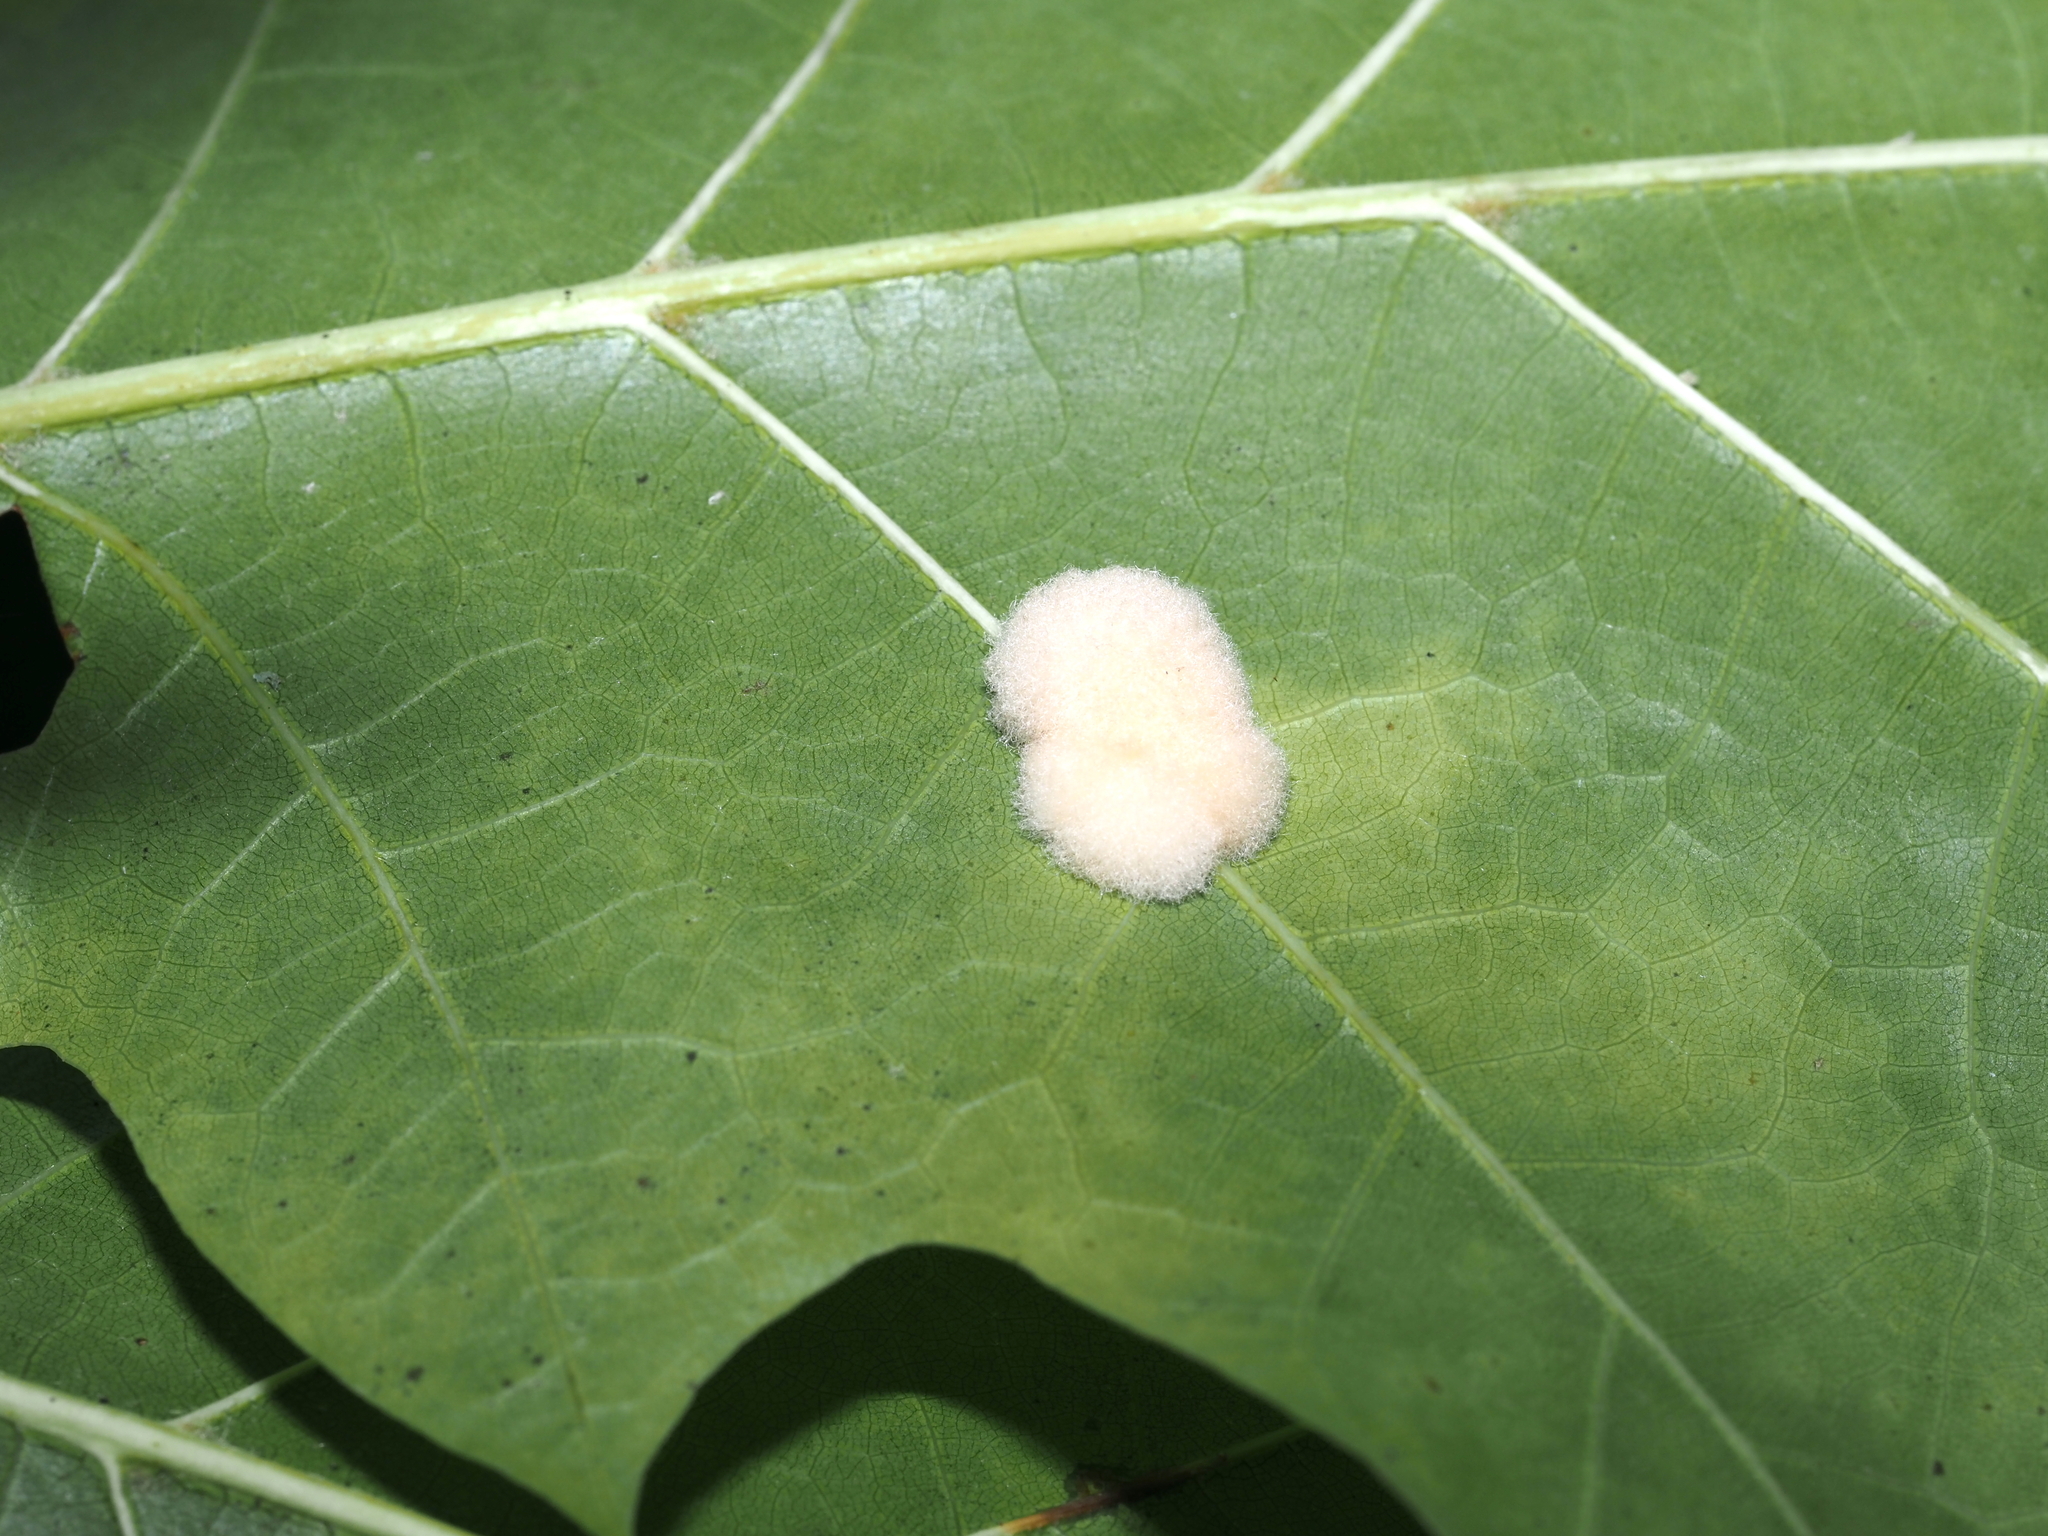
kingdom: Animalia
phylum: Arthropoda
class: Insecta
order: Hymenoptera
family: Cynipidae
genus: Callirhytis
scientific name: Callirhytis
